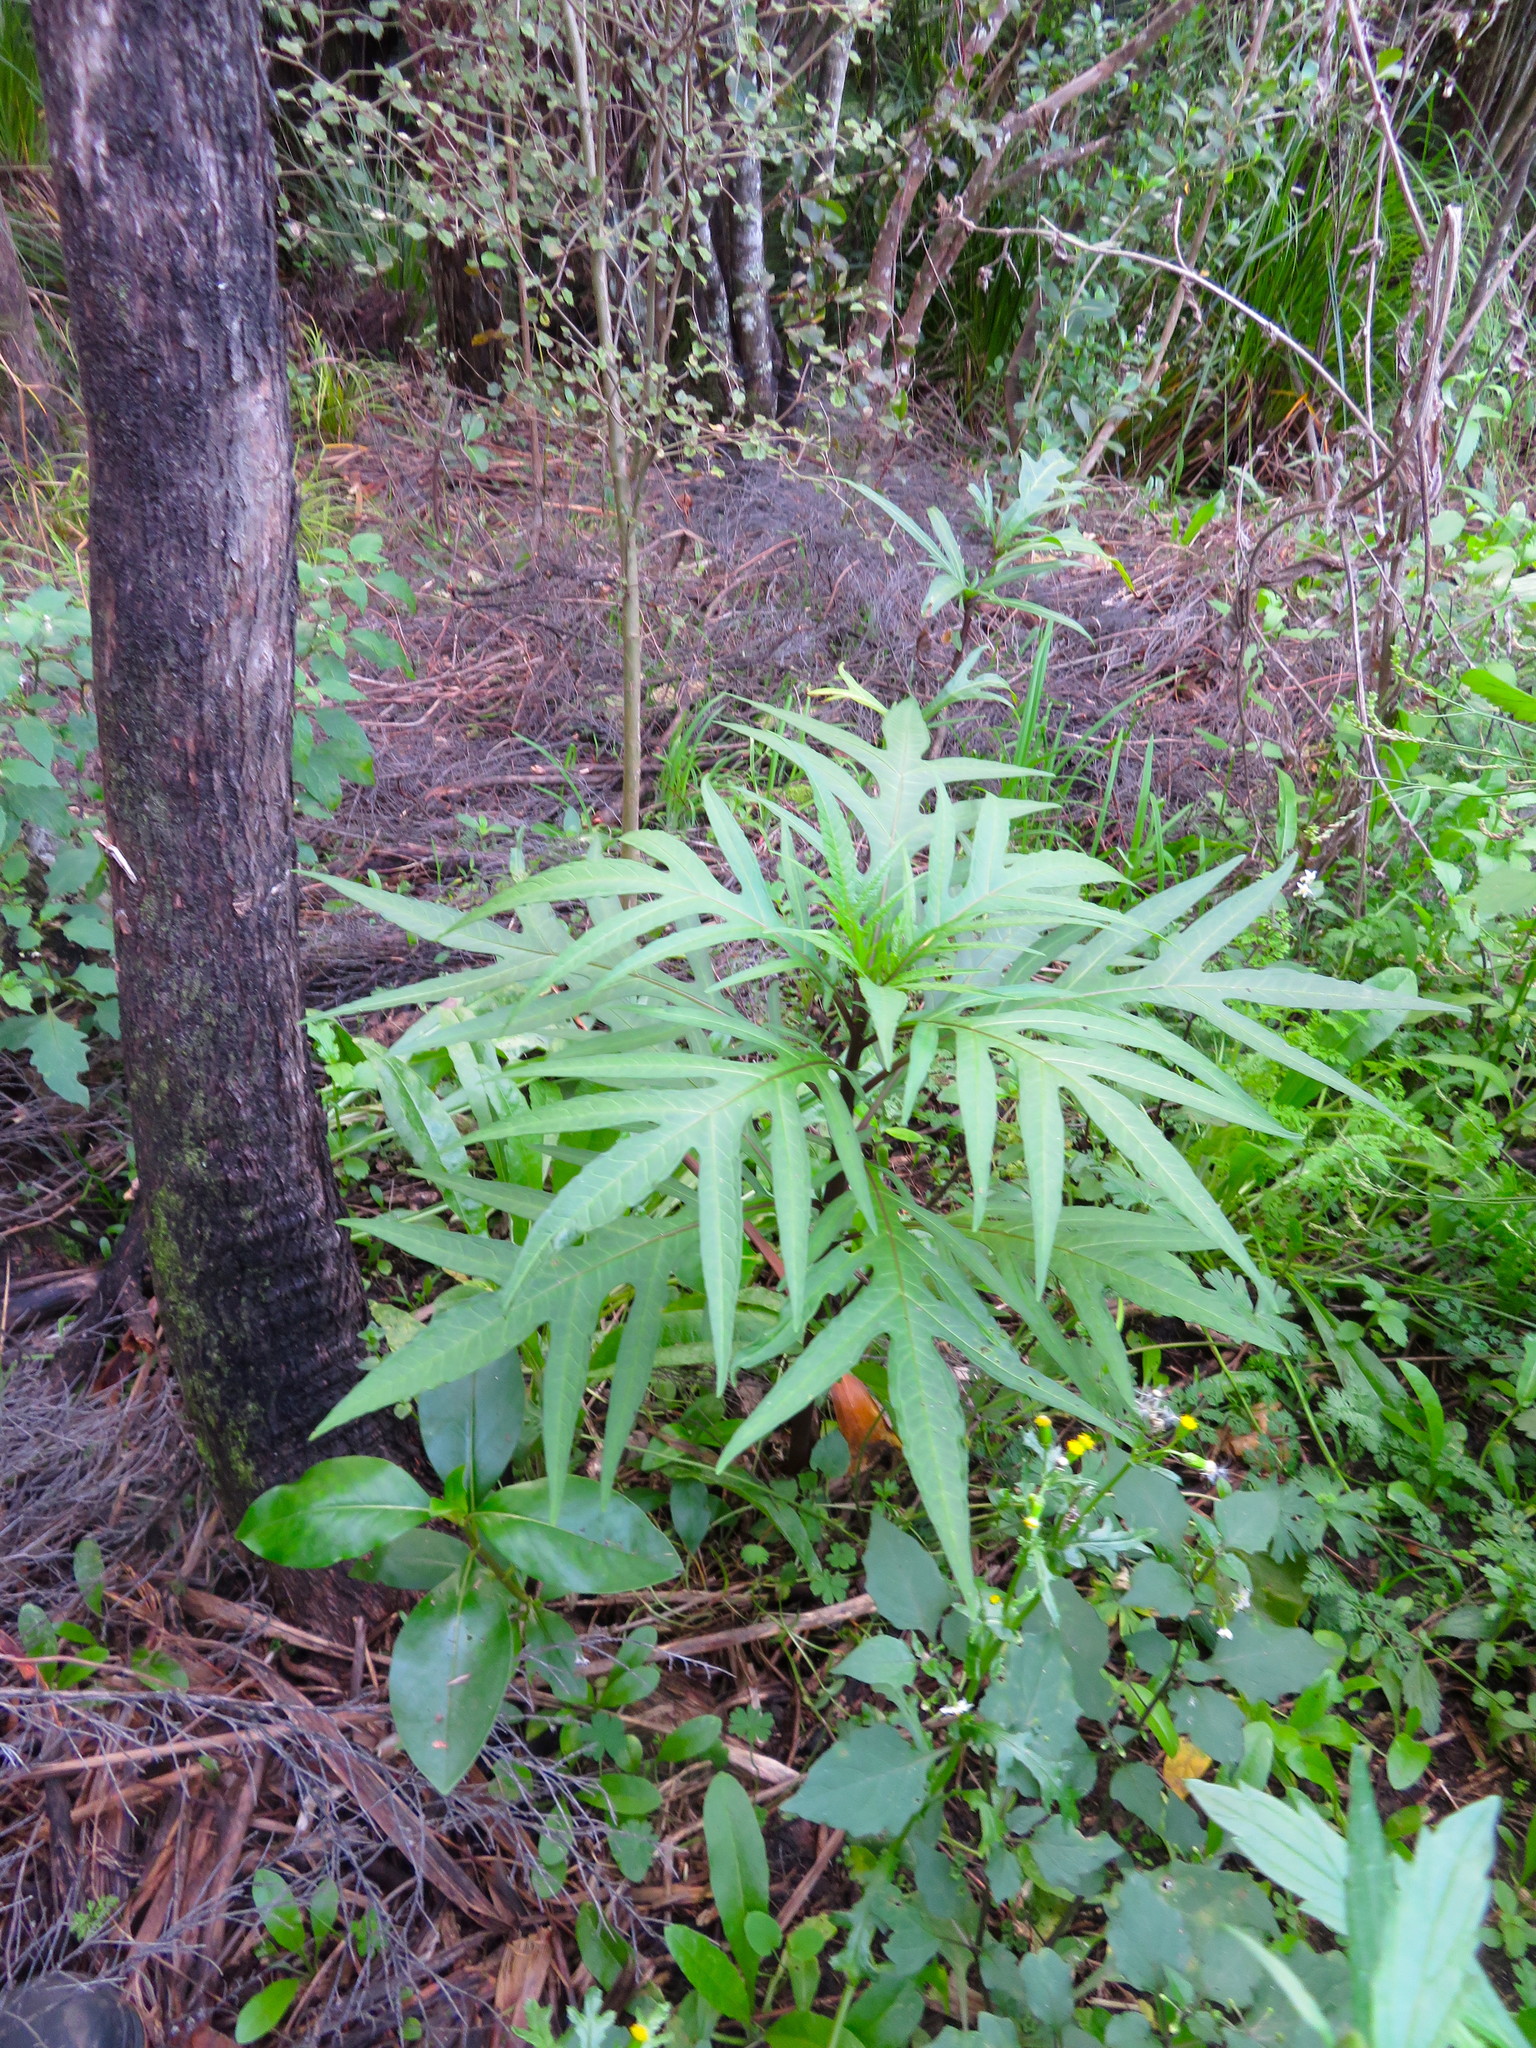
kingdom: Plantae
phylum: Tracheophyta
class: Magnoliopsida
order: Solanales
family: Solanaceae
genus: Solanum
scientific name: Solanum laciniatum
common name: Kangaroo-apple
